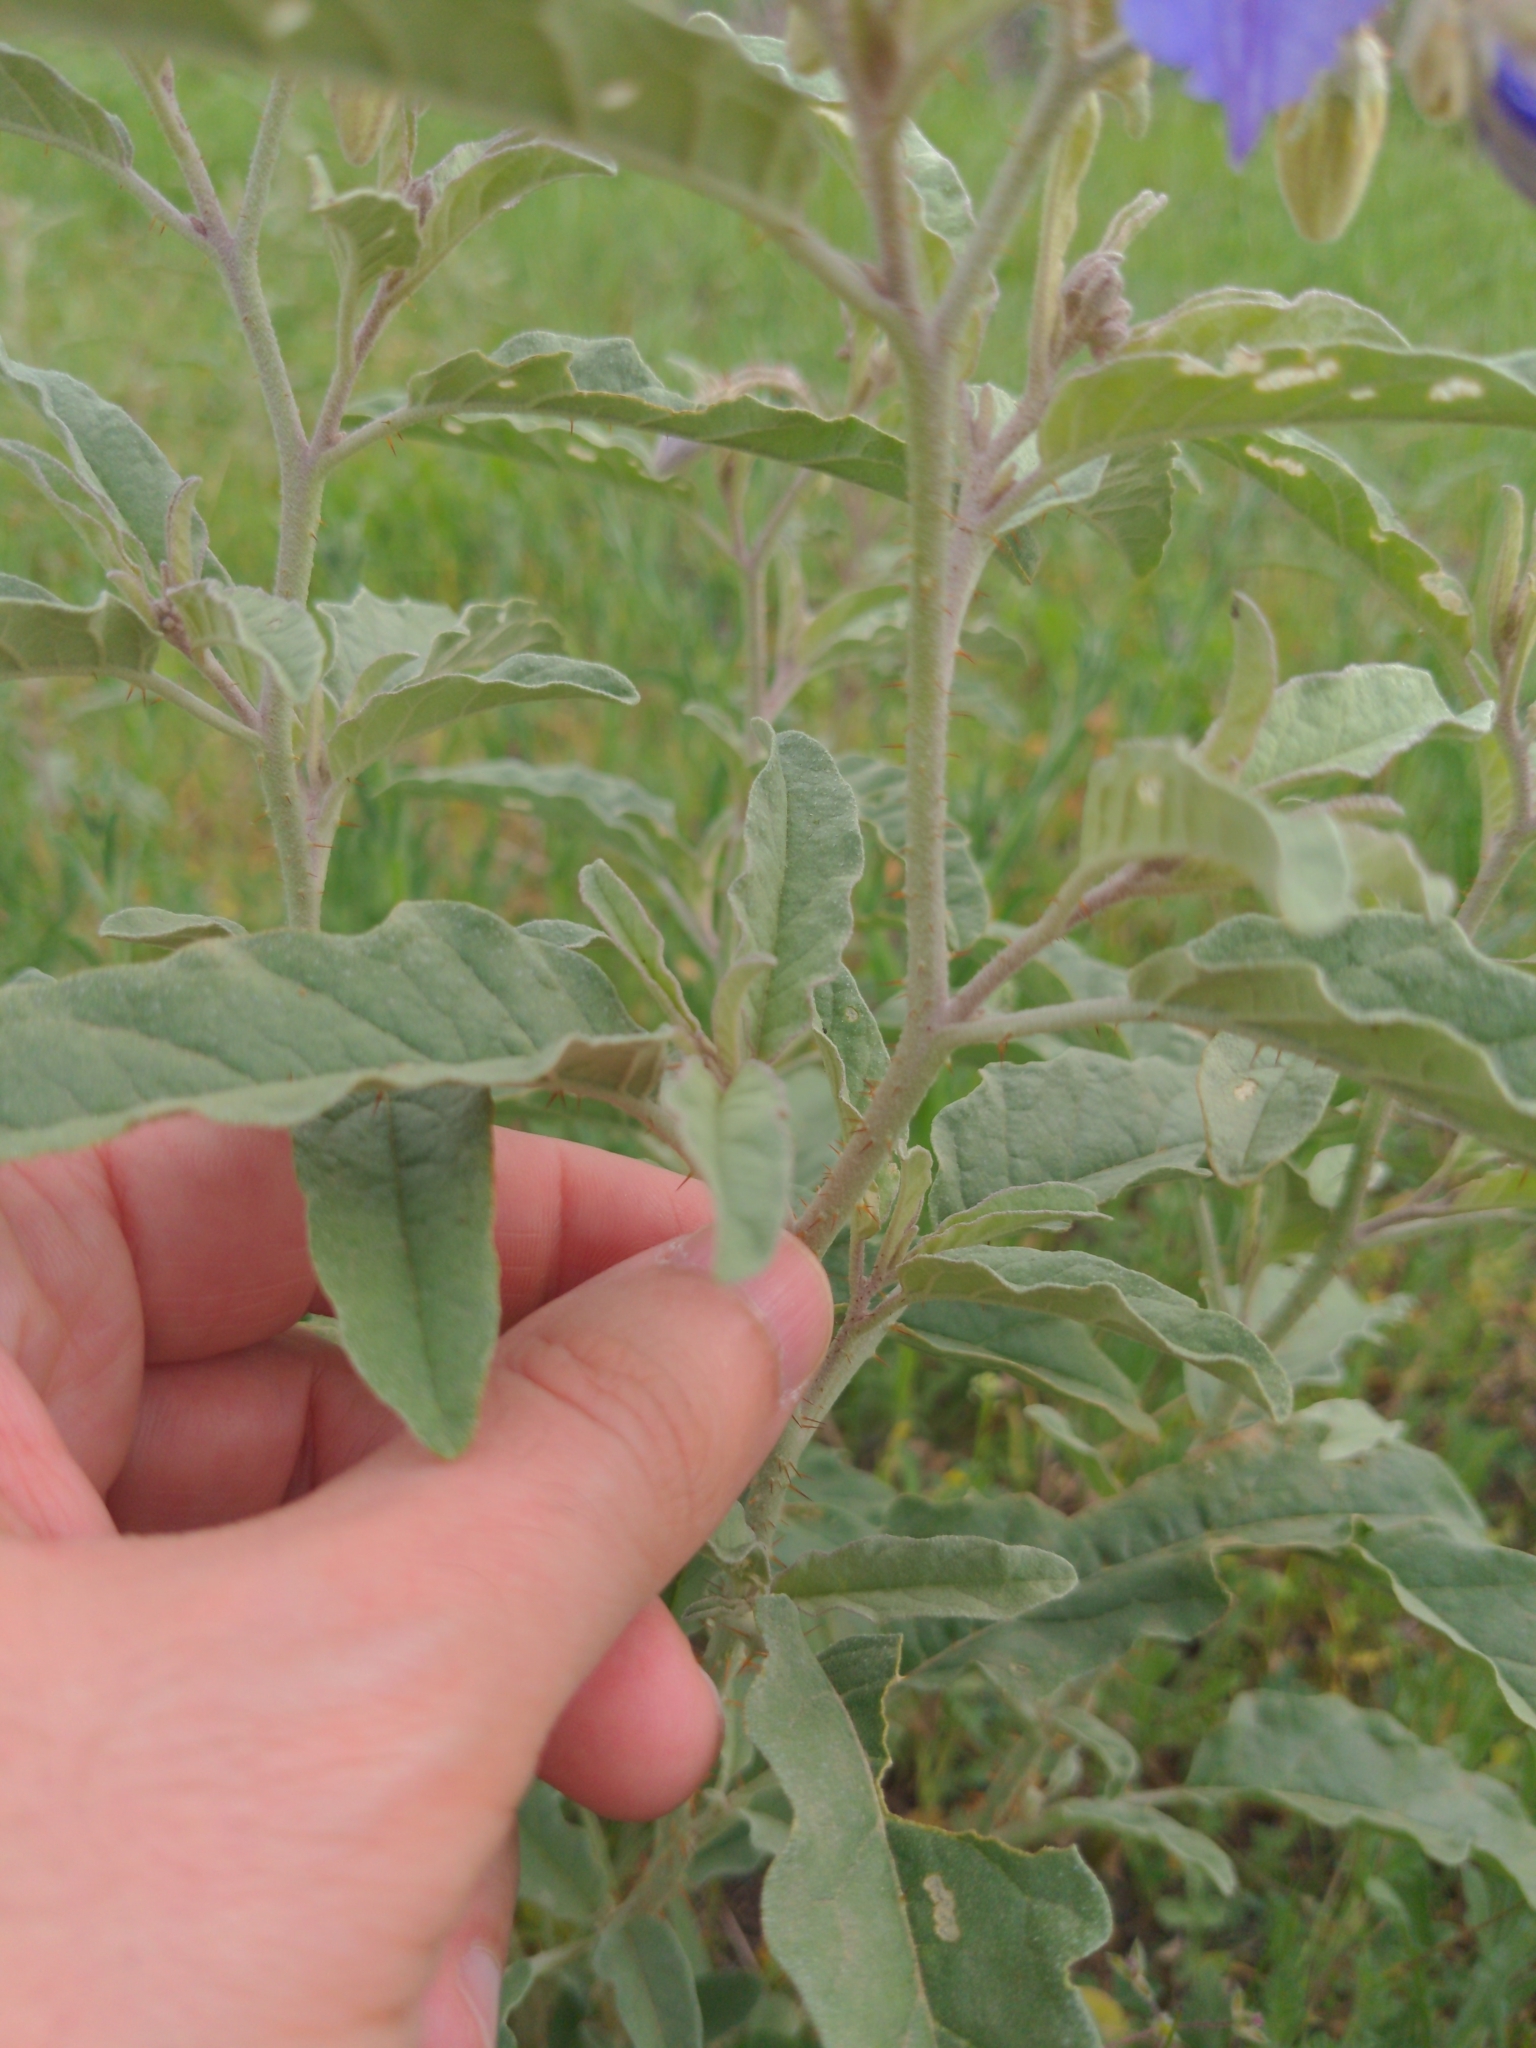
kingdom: Plantae
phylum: Tracheophyta
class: Magnoliopsida
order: Solanales
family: Solanaceae
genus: Solanum
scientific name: Solanum elaeagnifolium
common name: Silverleaf nightshade
